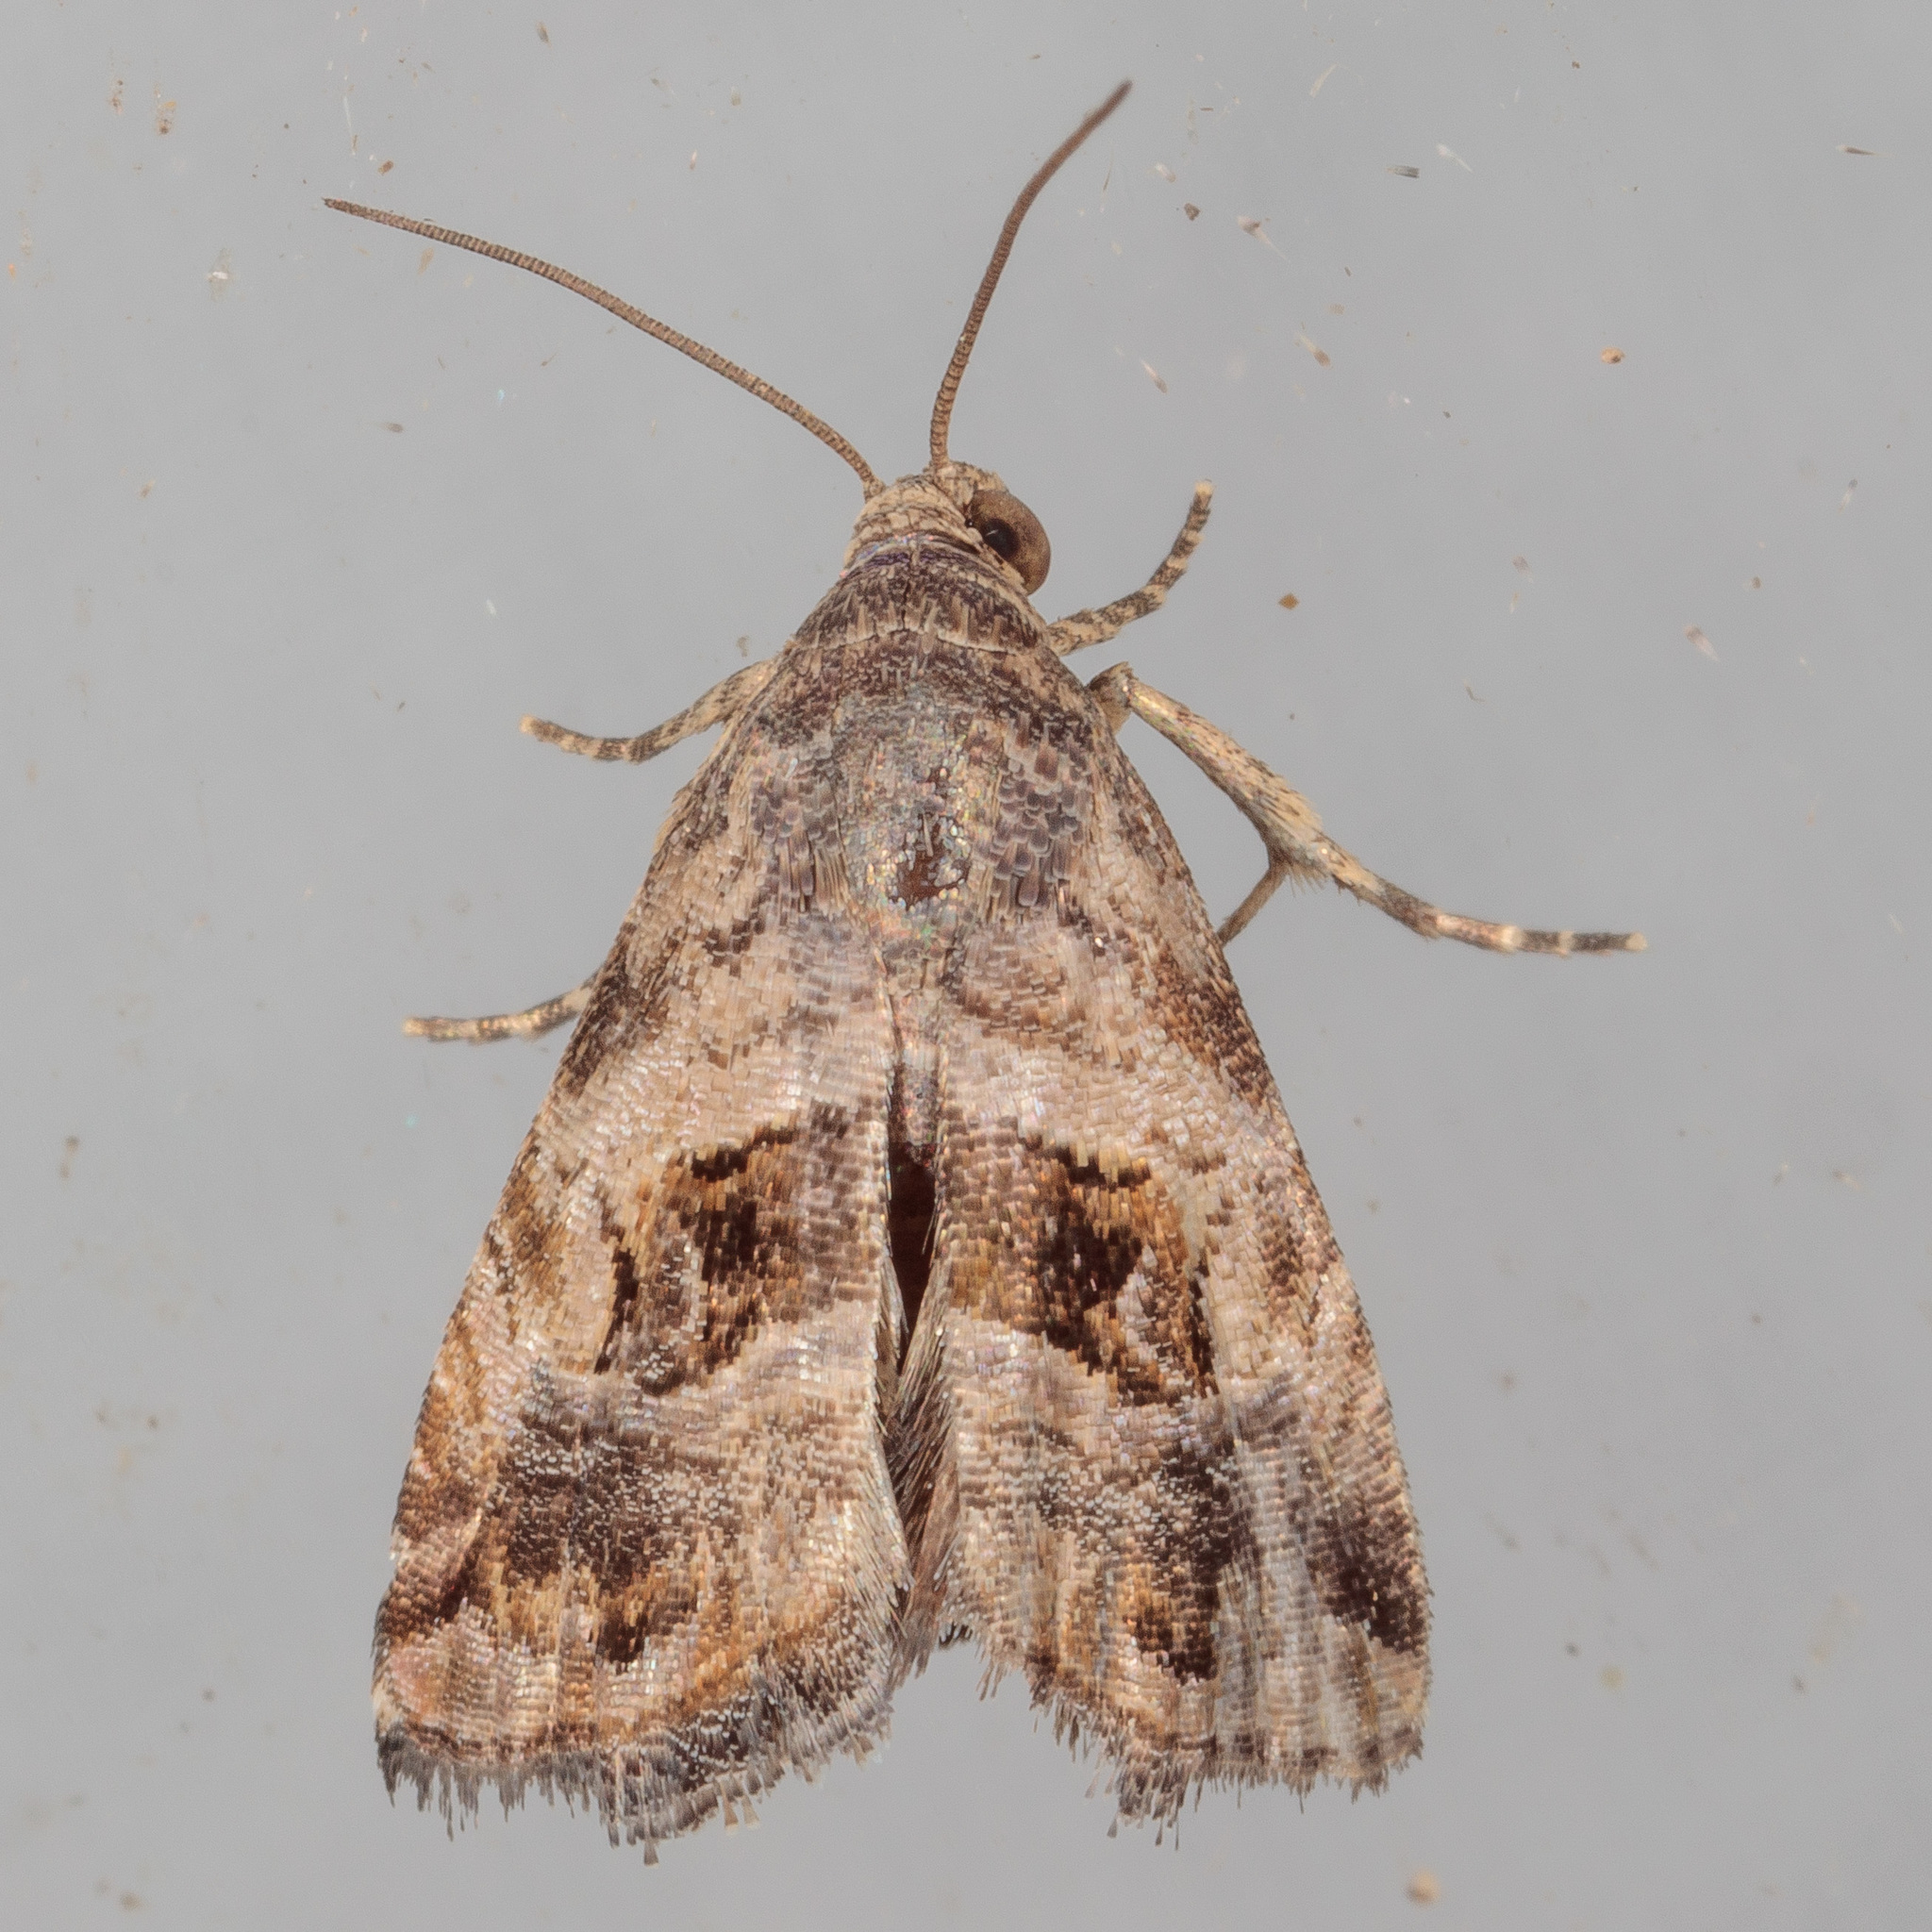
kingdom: Animalia
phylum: Arthropoda
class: Insecta
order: Lepidoptera
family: Noctuidae
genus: Tripudia
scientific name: Tripudia quadrifera
